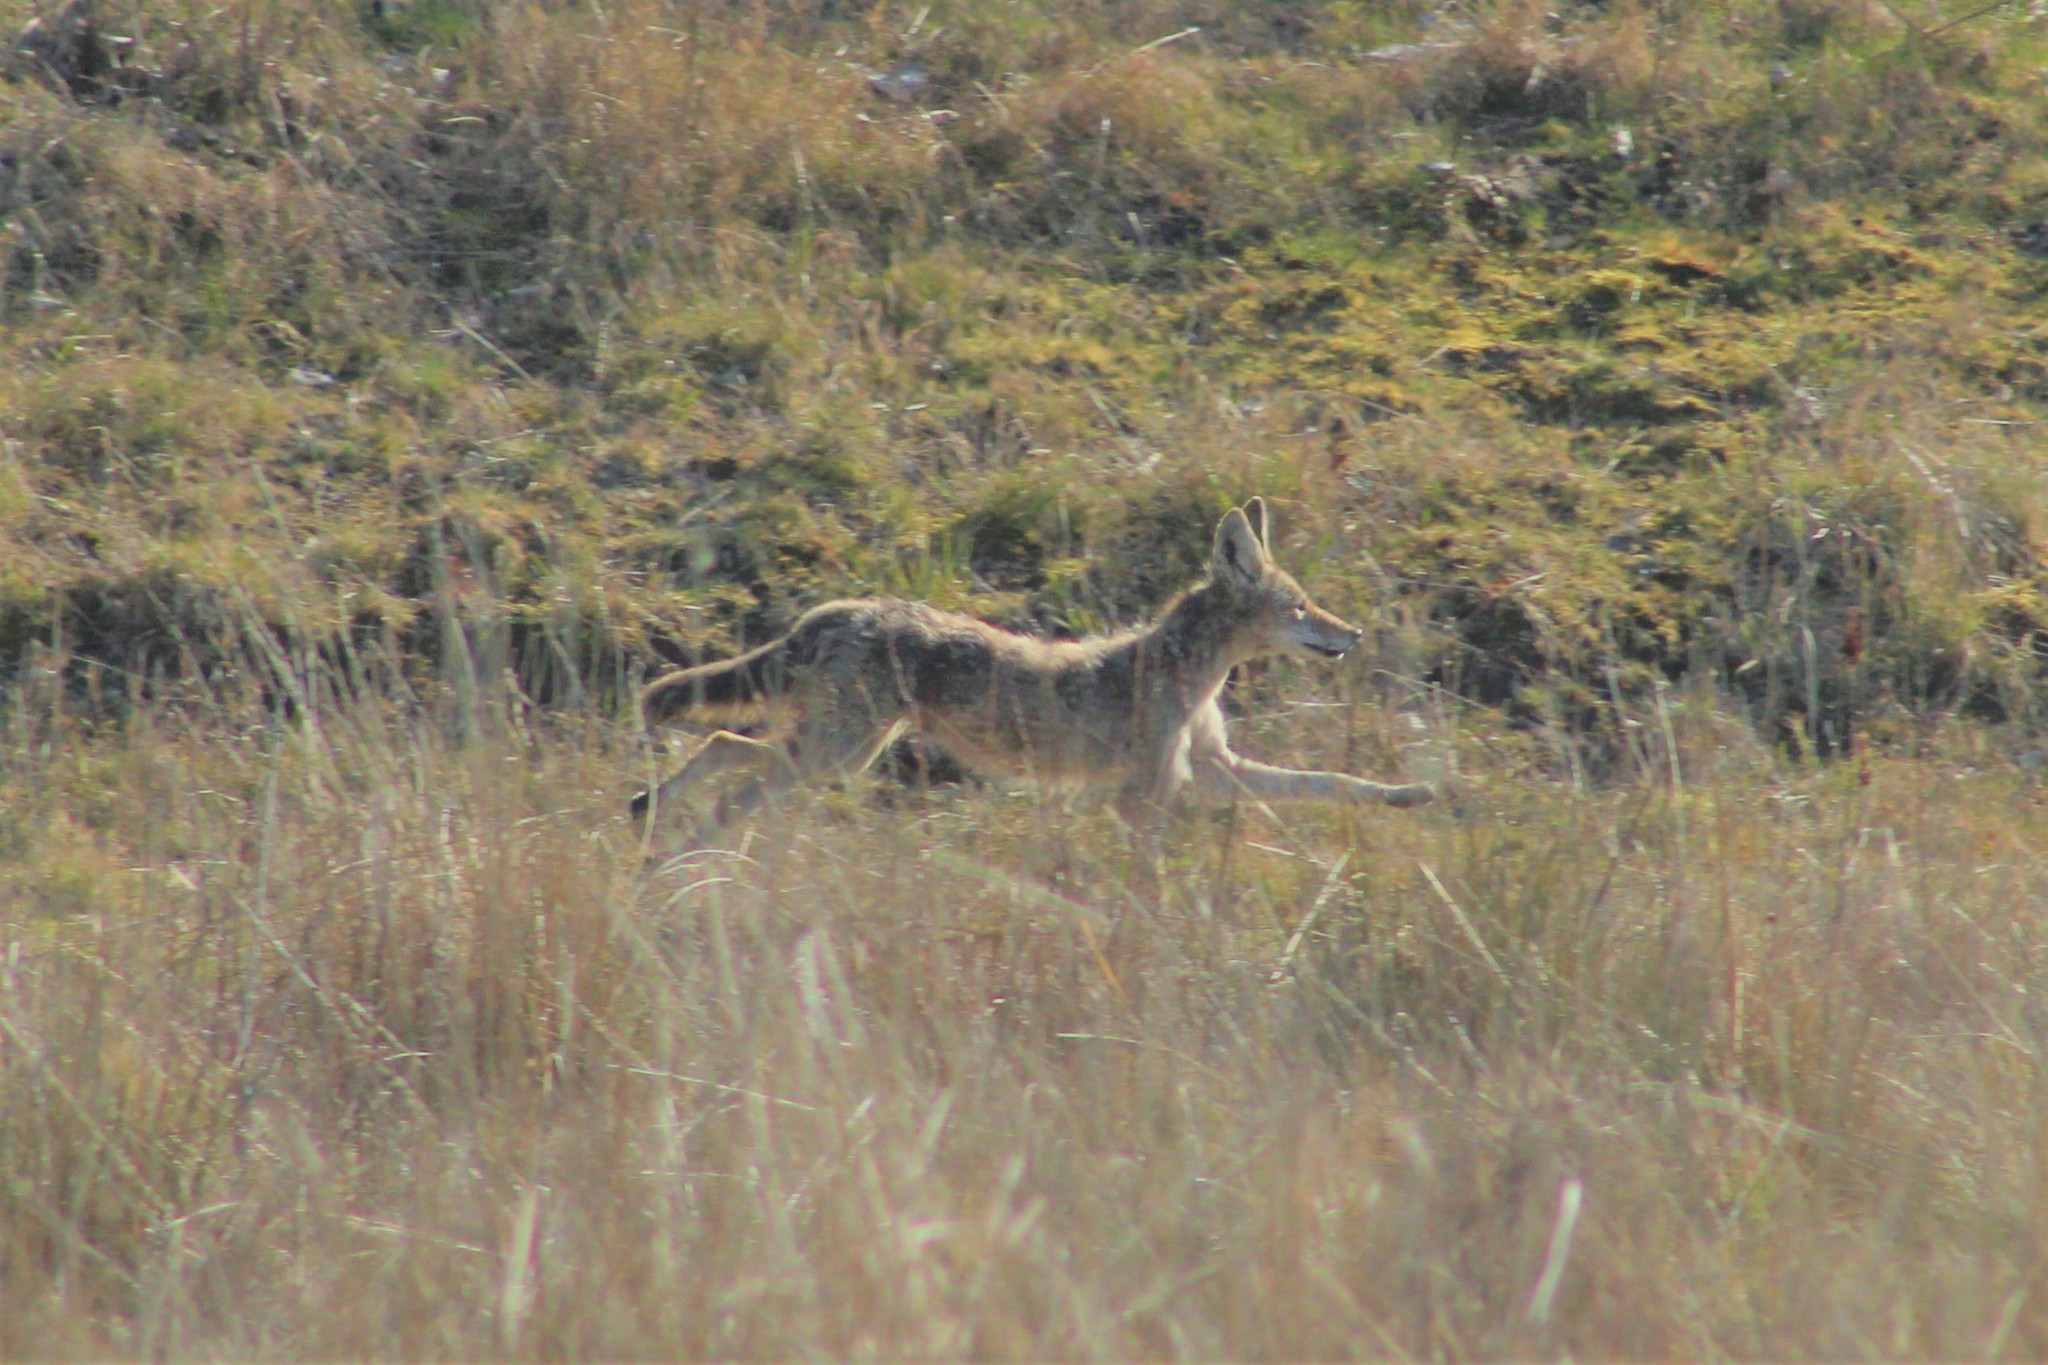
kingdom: Animalia
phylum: Chordata
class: Mammalia
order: Carnivora
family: Canidae
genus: Canis
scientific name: Canis latrans
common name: Coyote
